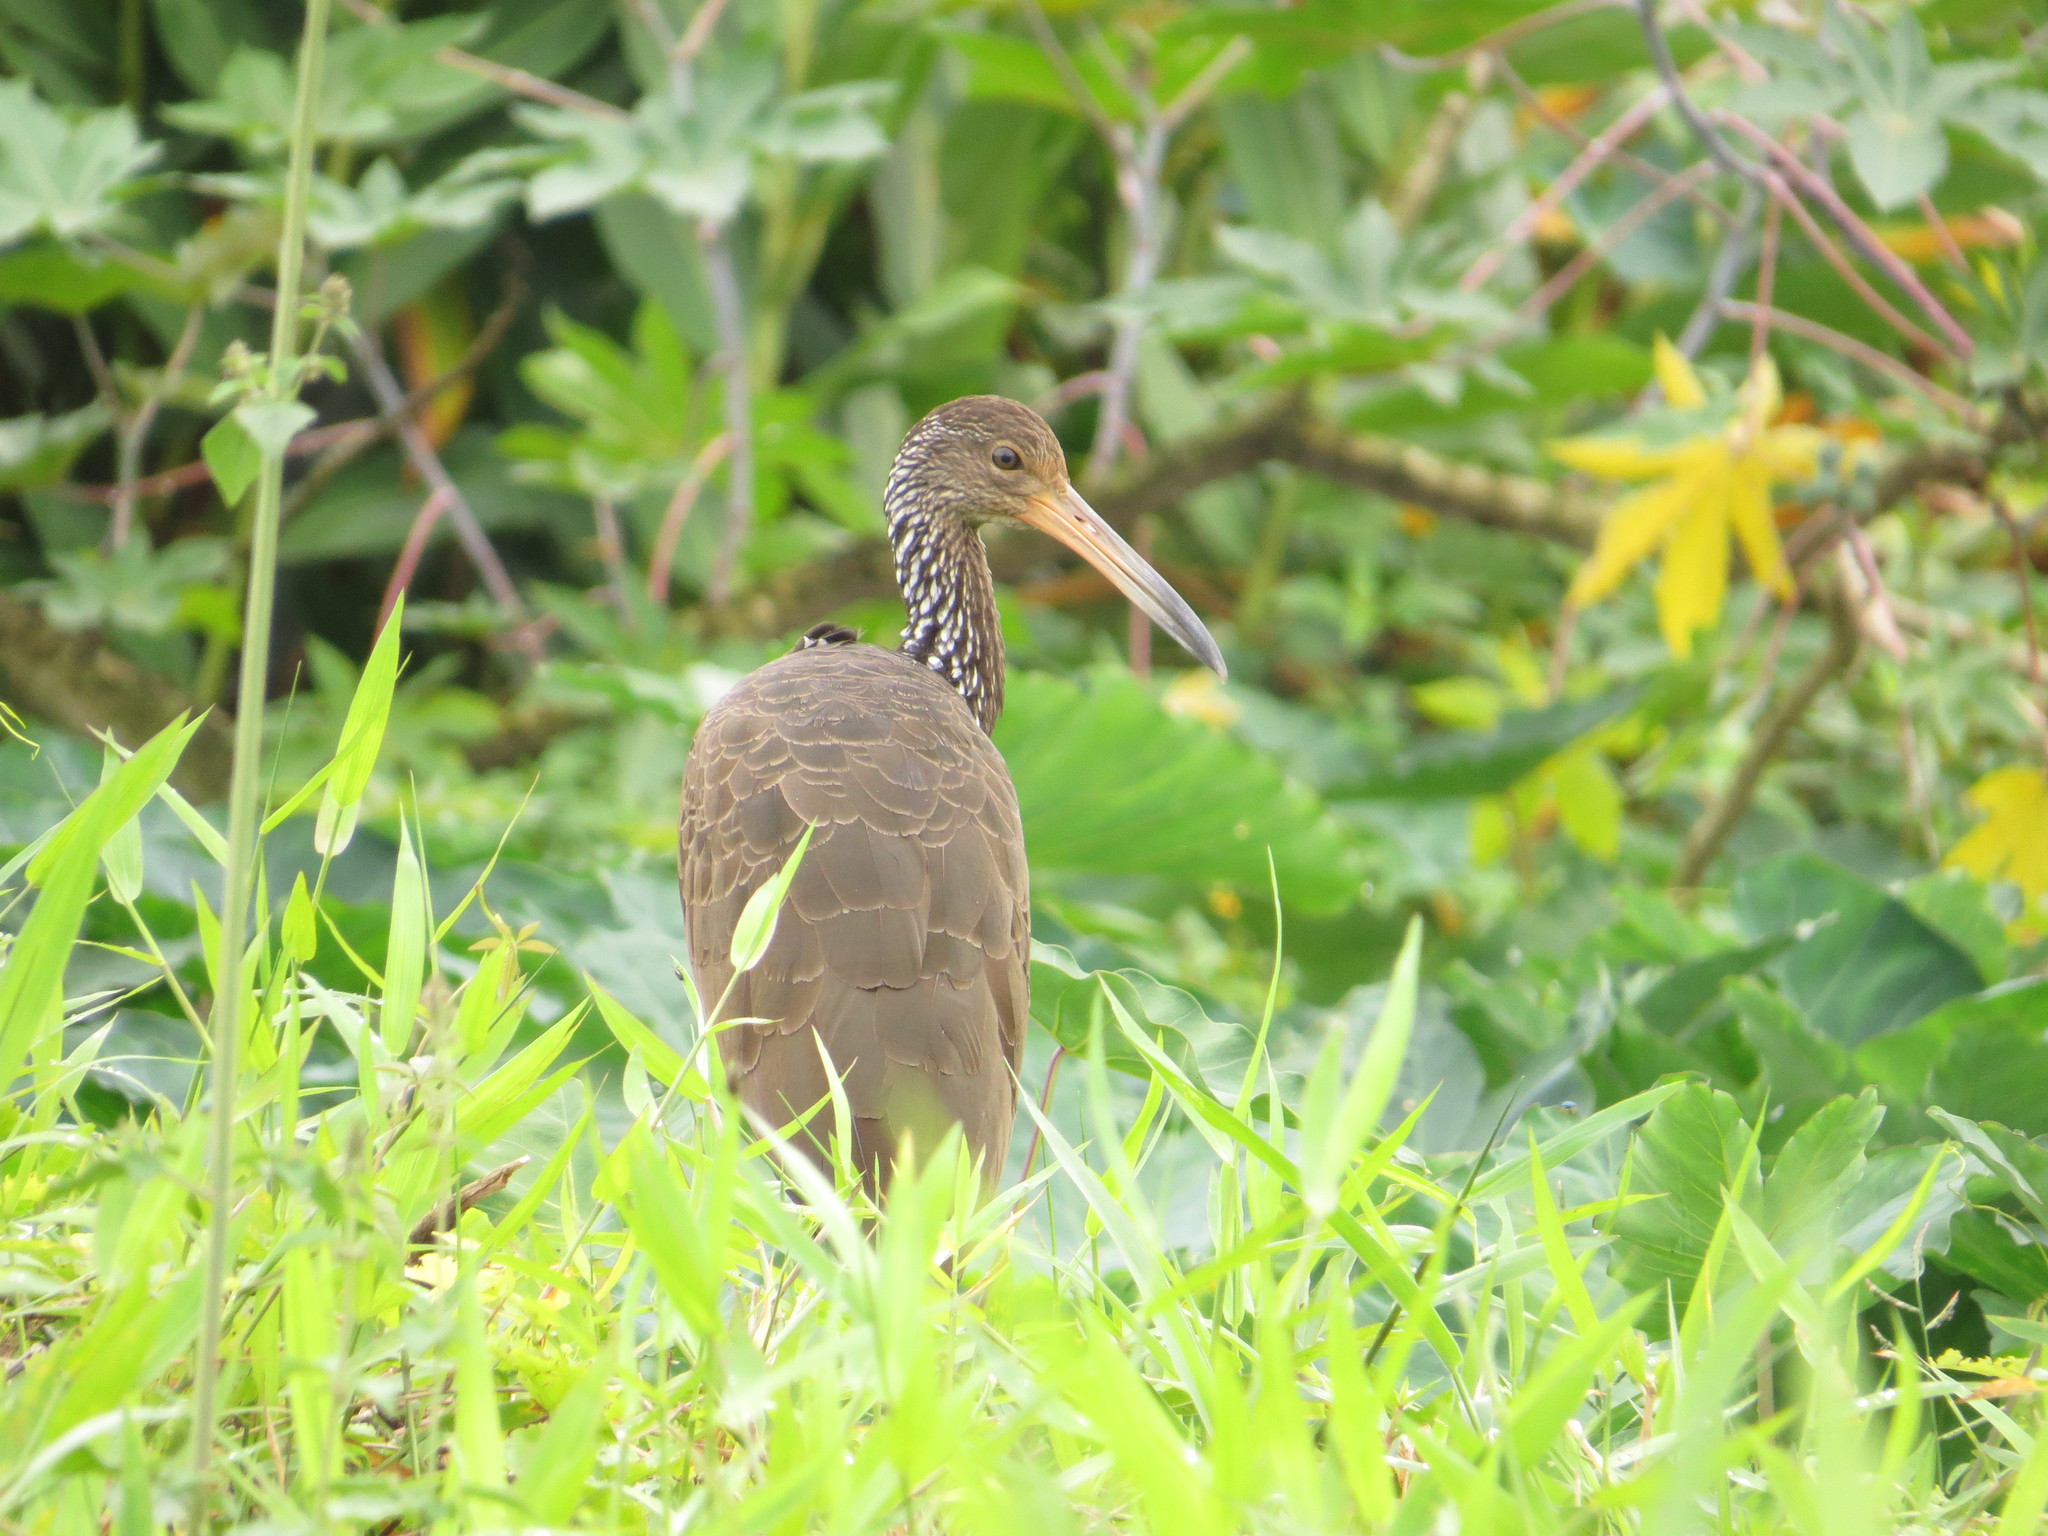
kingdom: Animalia
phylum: Chordata
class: Aves
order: Gruiformes
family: Aramidae
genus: Aramus
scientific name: Aramus guarauna
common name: Limpkin
